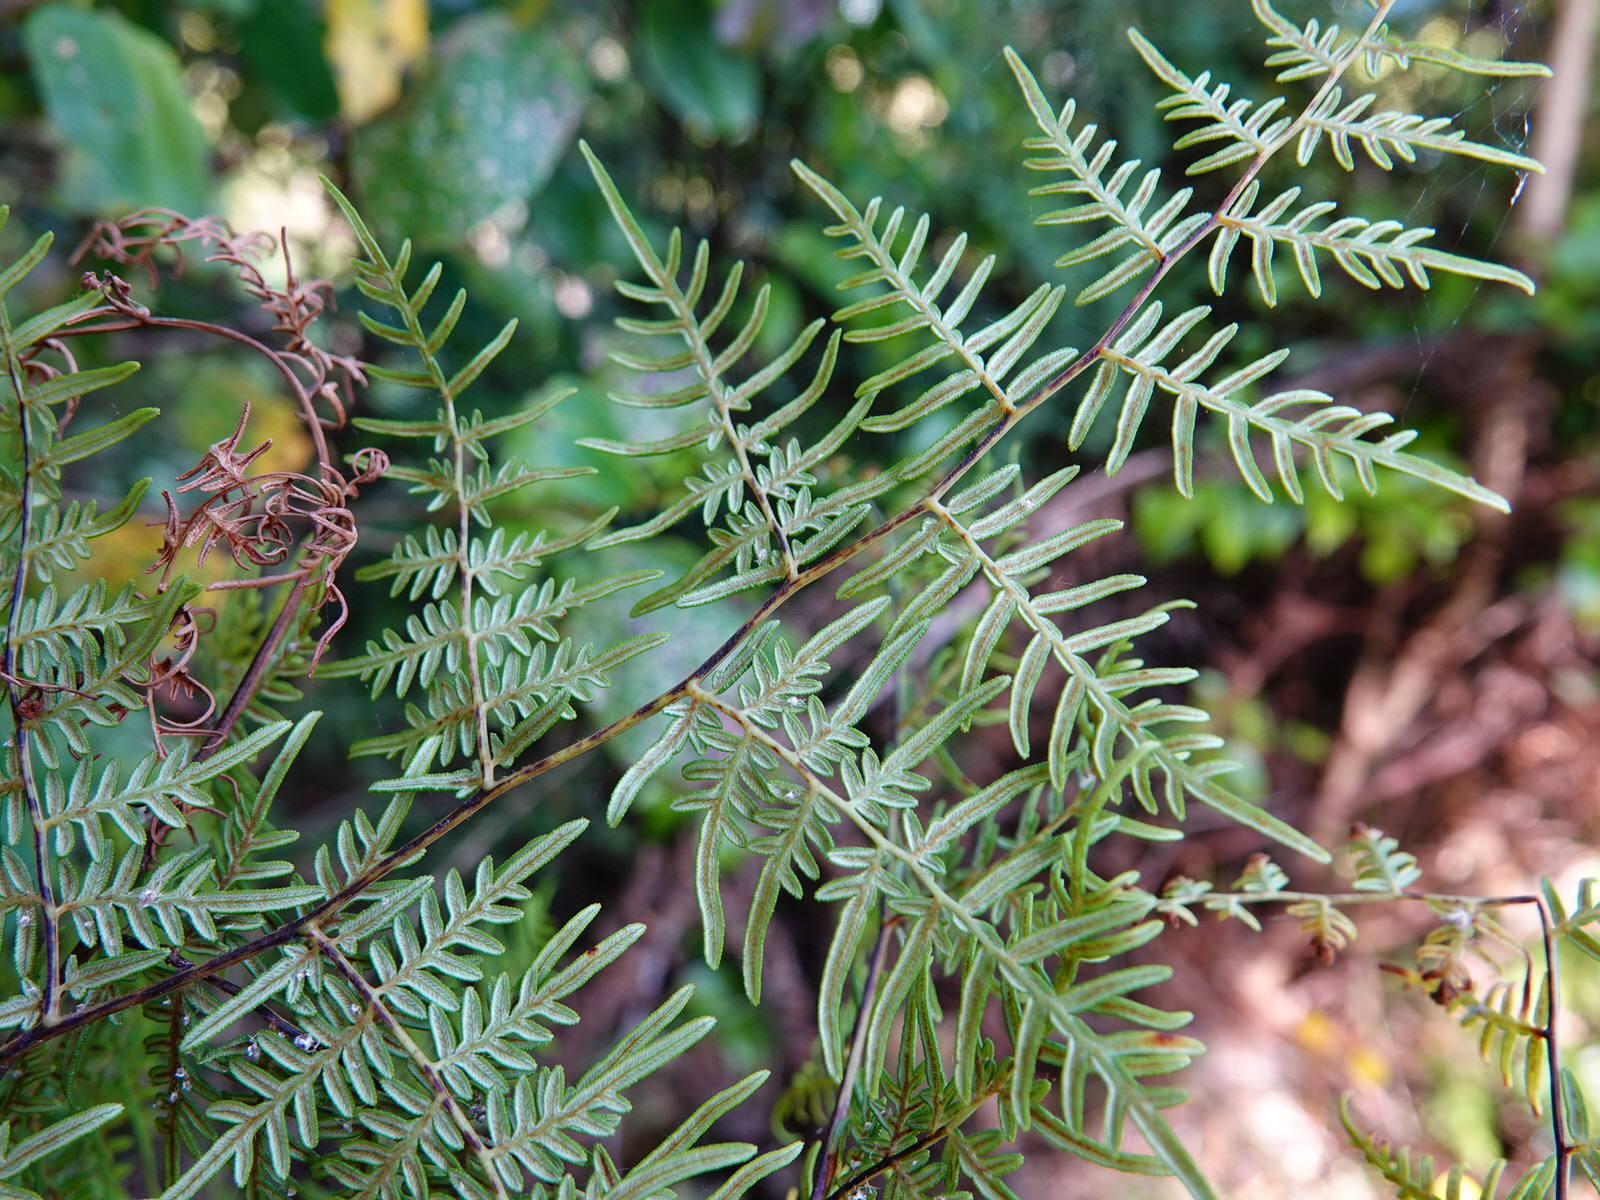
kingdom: Plantae
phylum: Tracheophyta
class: Polypodiopsida
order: Polypodiales
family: Dennstaedtiaceae
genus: Pteridium
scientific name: Pteridium esculentum
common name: Bracken fern
